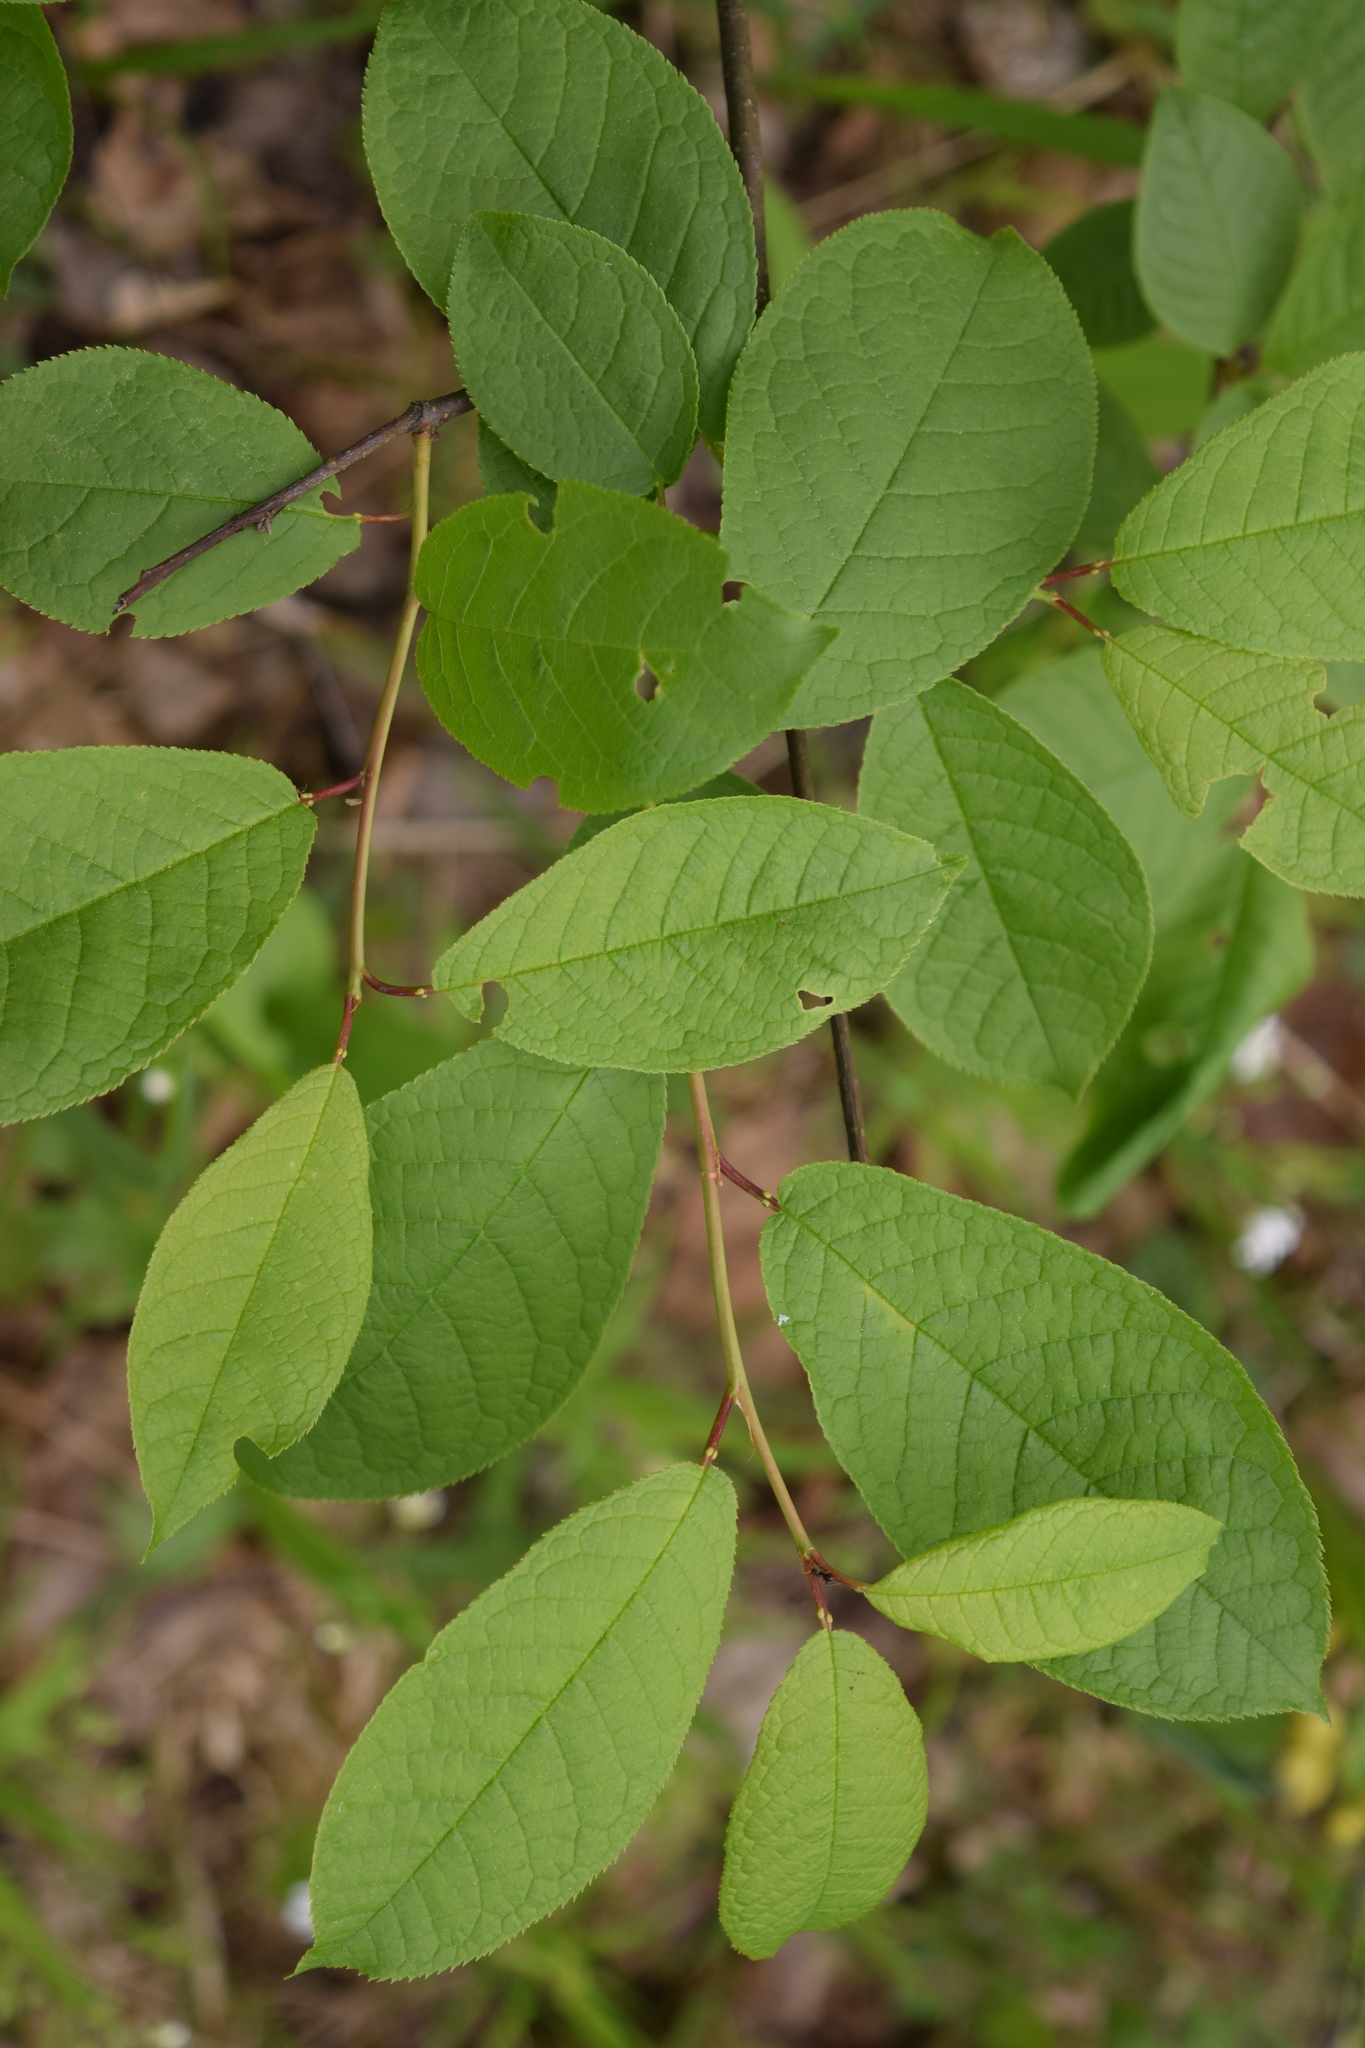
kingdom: Plantae
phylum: Tracheophyta
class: Magnoliopsida
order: Rosales
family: Rosaceae
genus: Prunus
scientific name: Prunus padus
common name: Bird cherry
